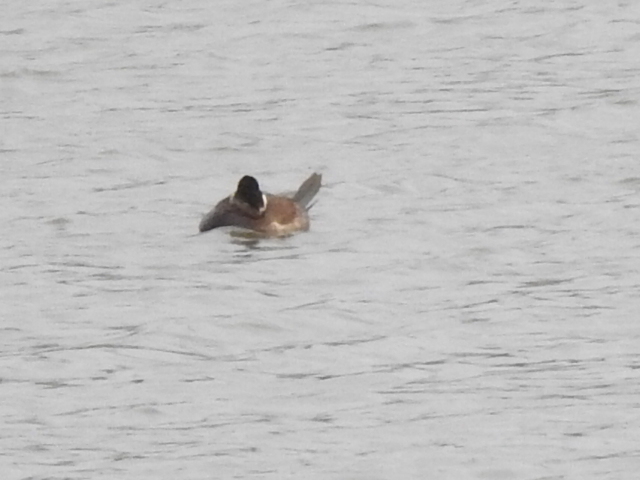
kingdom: Animalia
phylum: Chordata
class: Aves
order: Anseriformes
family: Anatidae
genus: Oxyura
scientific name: Oxyura jamaicensis
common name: Ruddy duck
